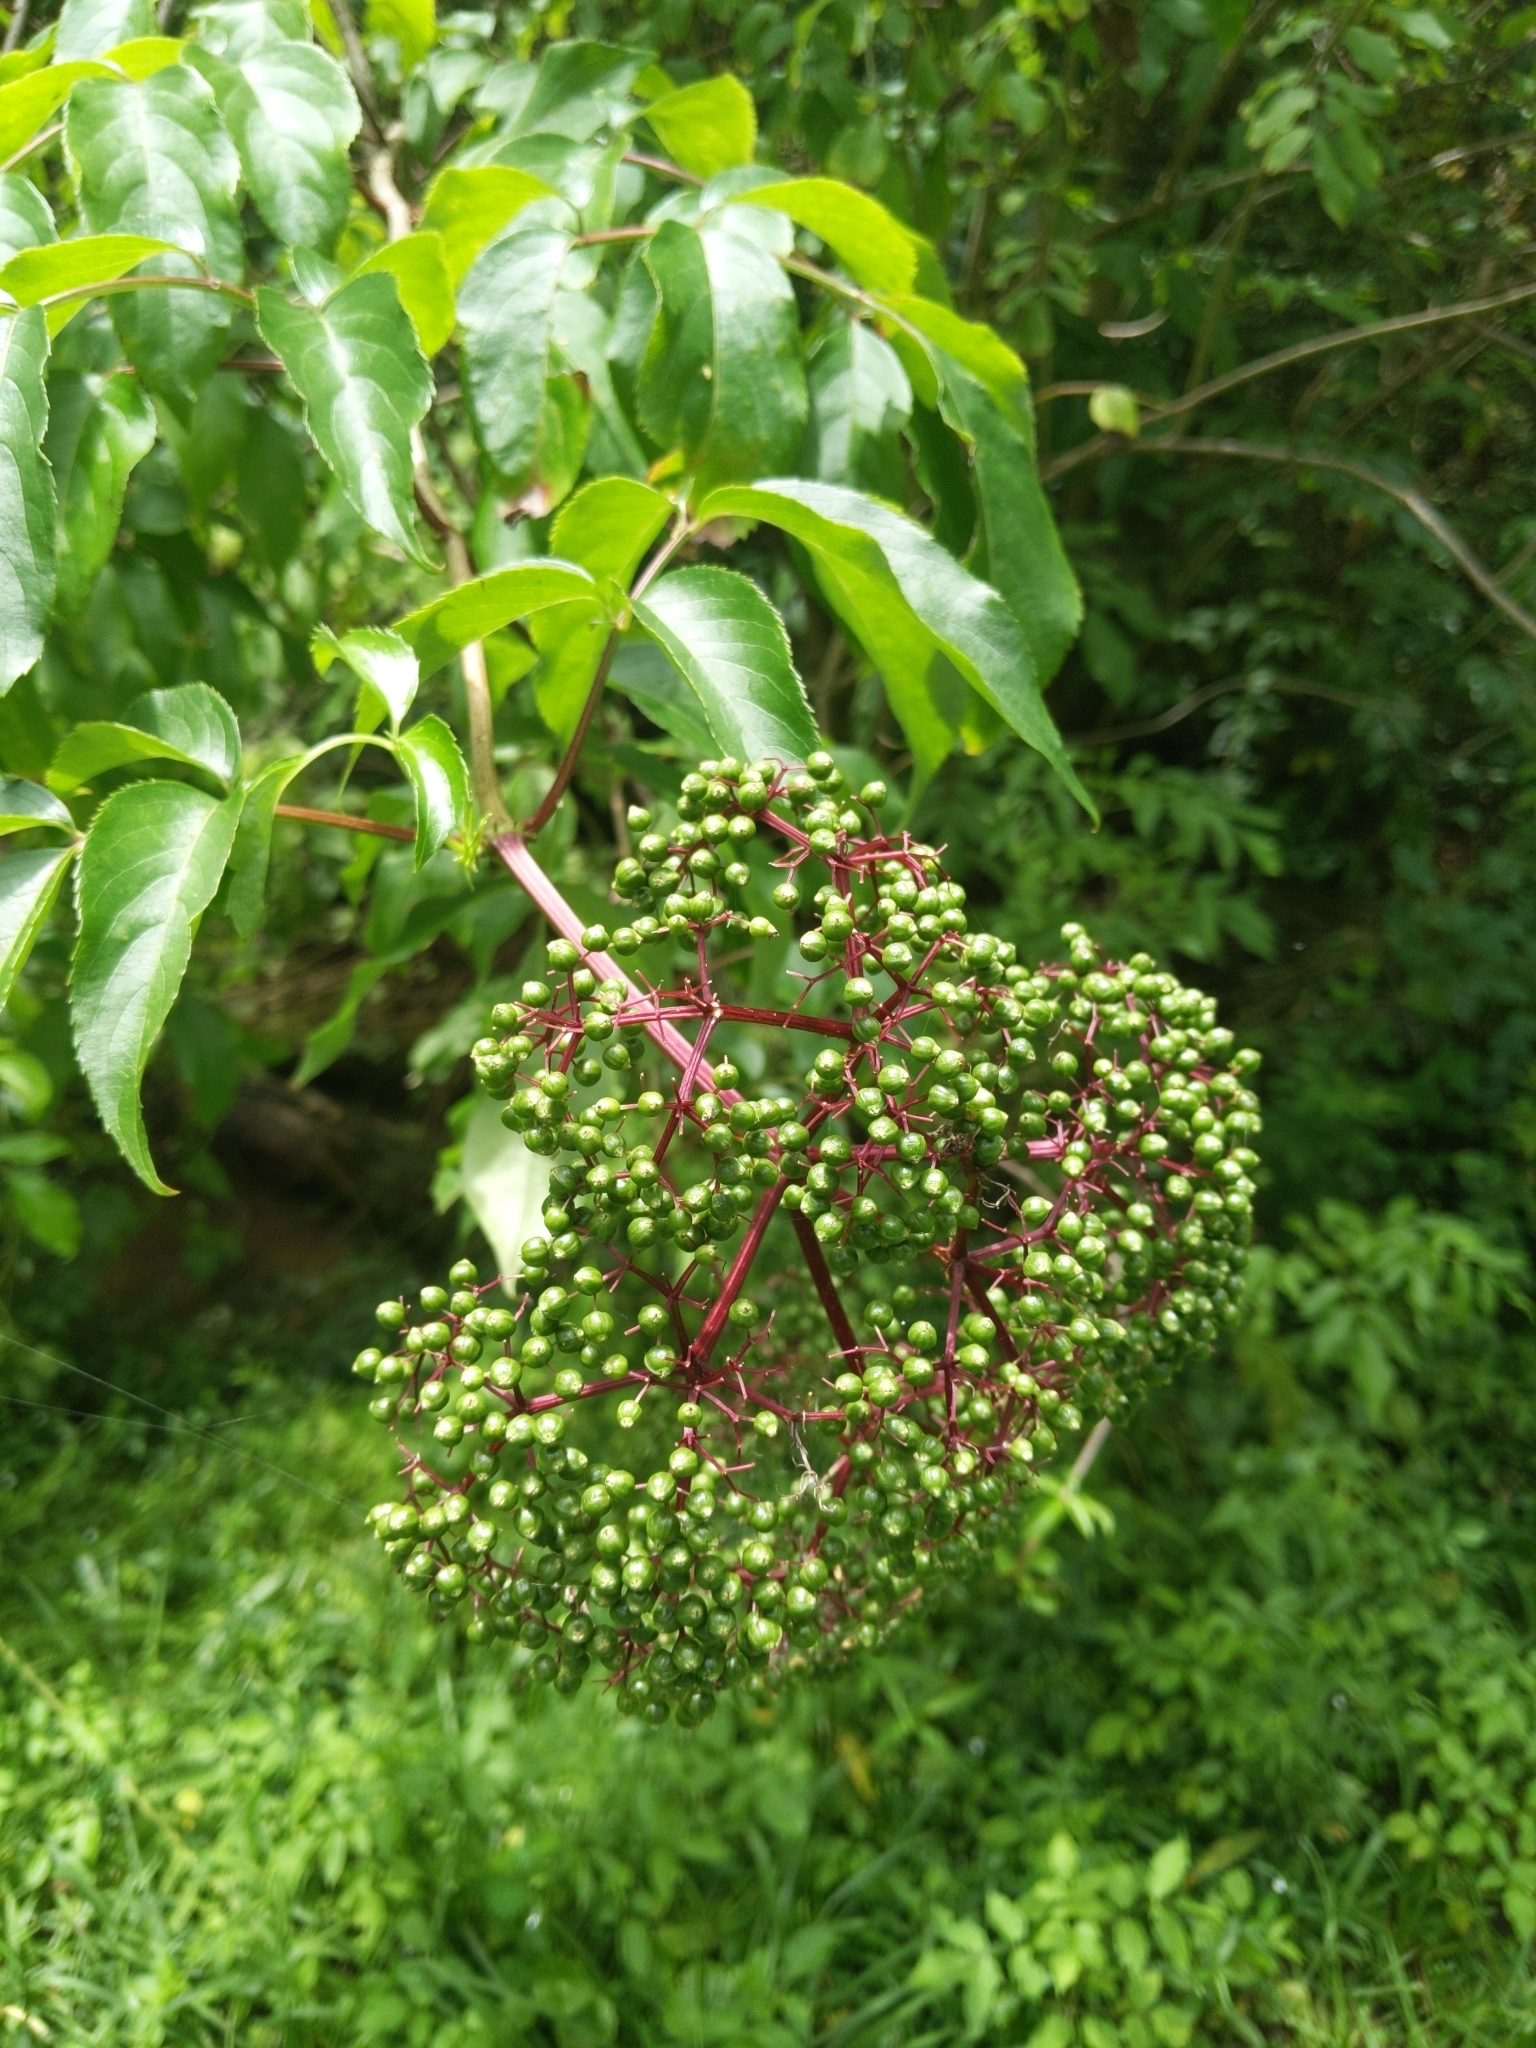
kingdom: Plantae
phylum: Tracheophyta
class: Magnoliopsida
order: Dipsacales
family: Viburnaceae
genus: Sambucus
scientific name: Sambucus canadensis
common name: American elder
